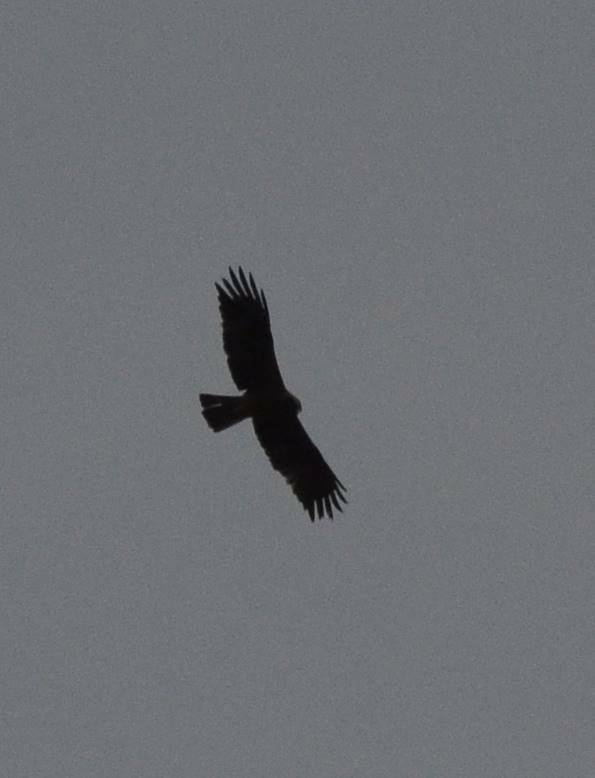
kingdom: Animalia
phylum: Chordata
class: Aves
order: Accipitriformes
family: Accipitridae
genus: Hieraaetus
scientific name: Hieraaetus pennatus
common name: Booted eagle
